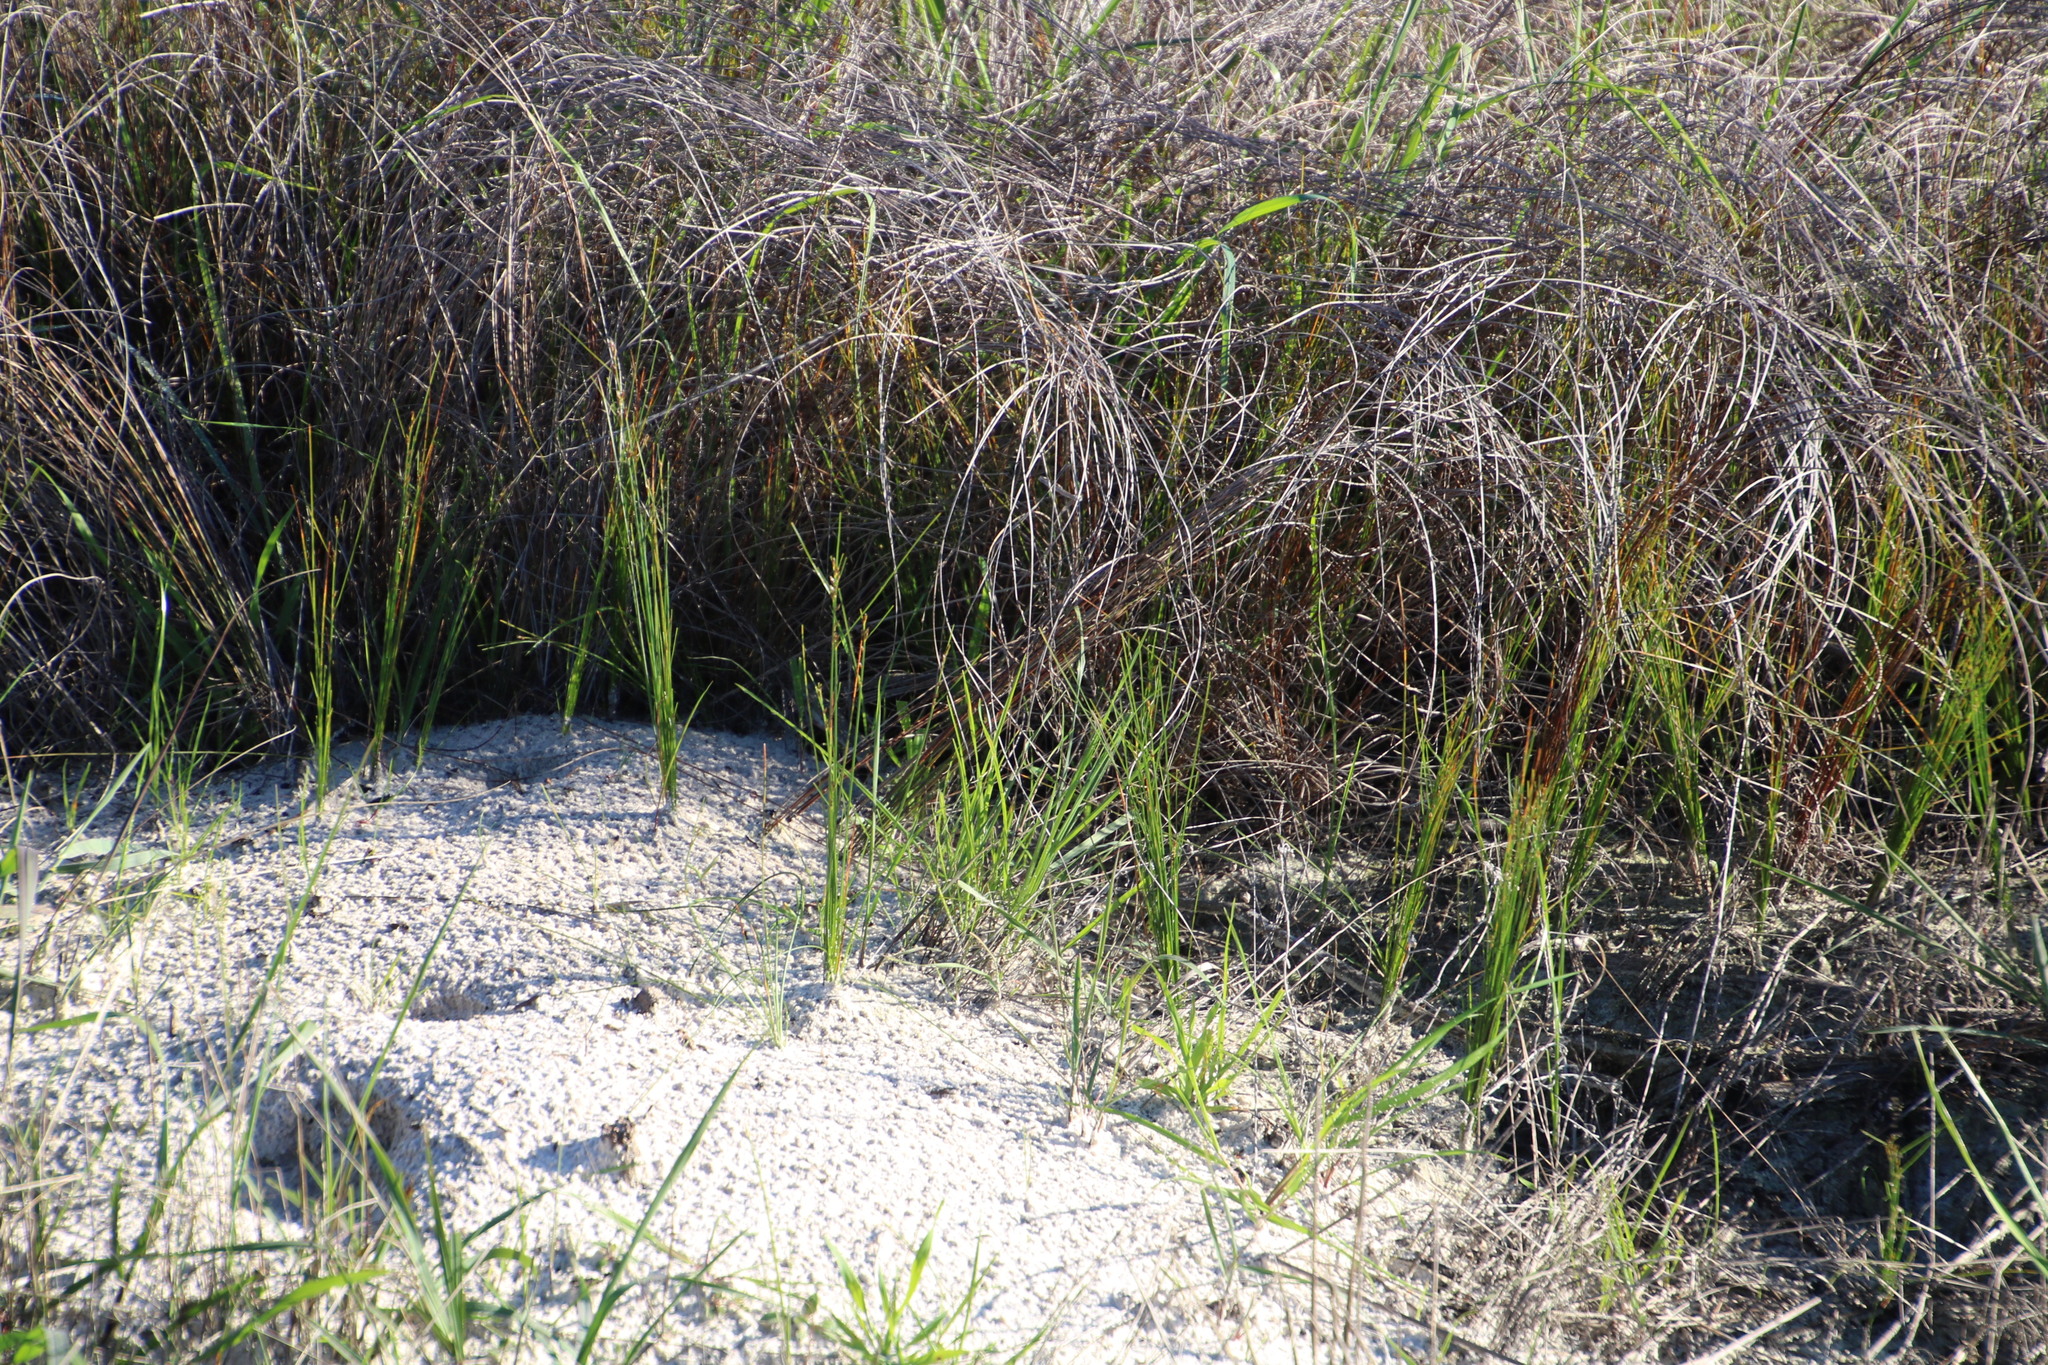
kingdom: Plantae
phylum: Tracheophyta
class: Liliopsida
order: Poales
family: Cyperaceae
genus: Ficinia
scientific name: Ficinia secunda
